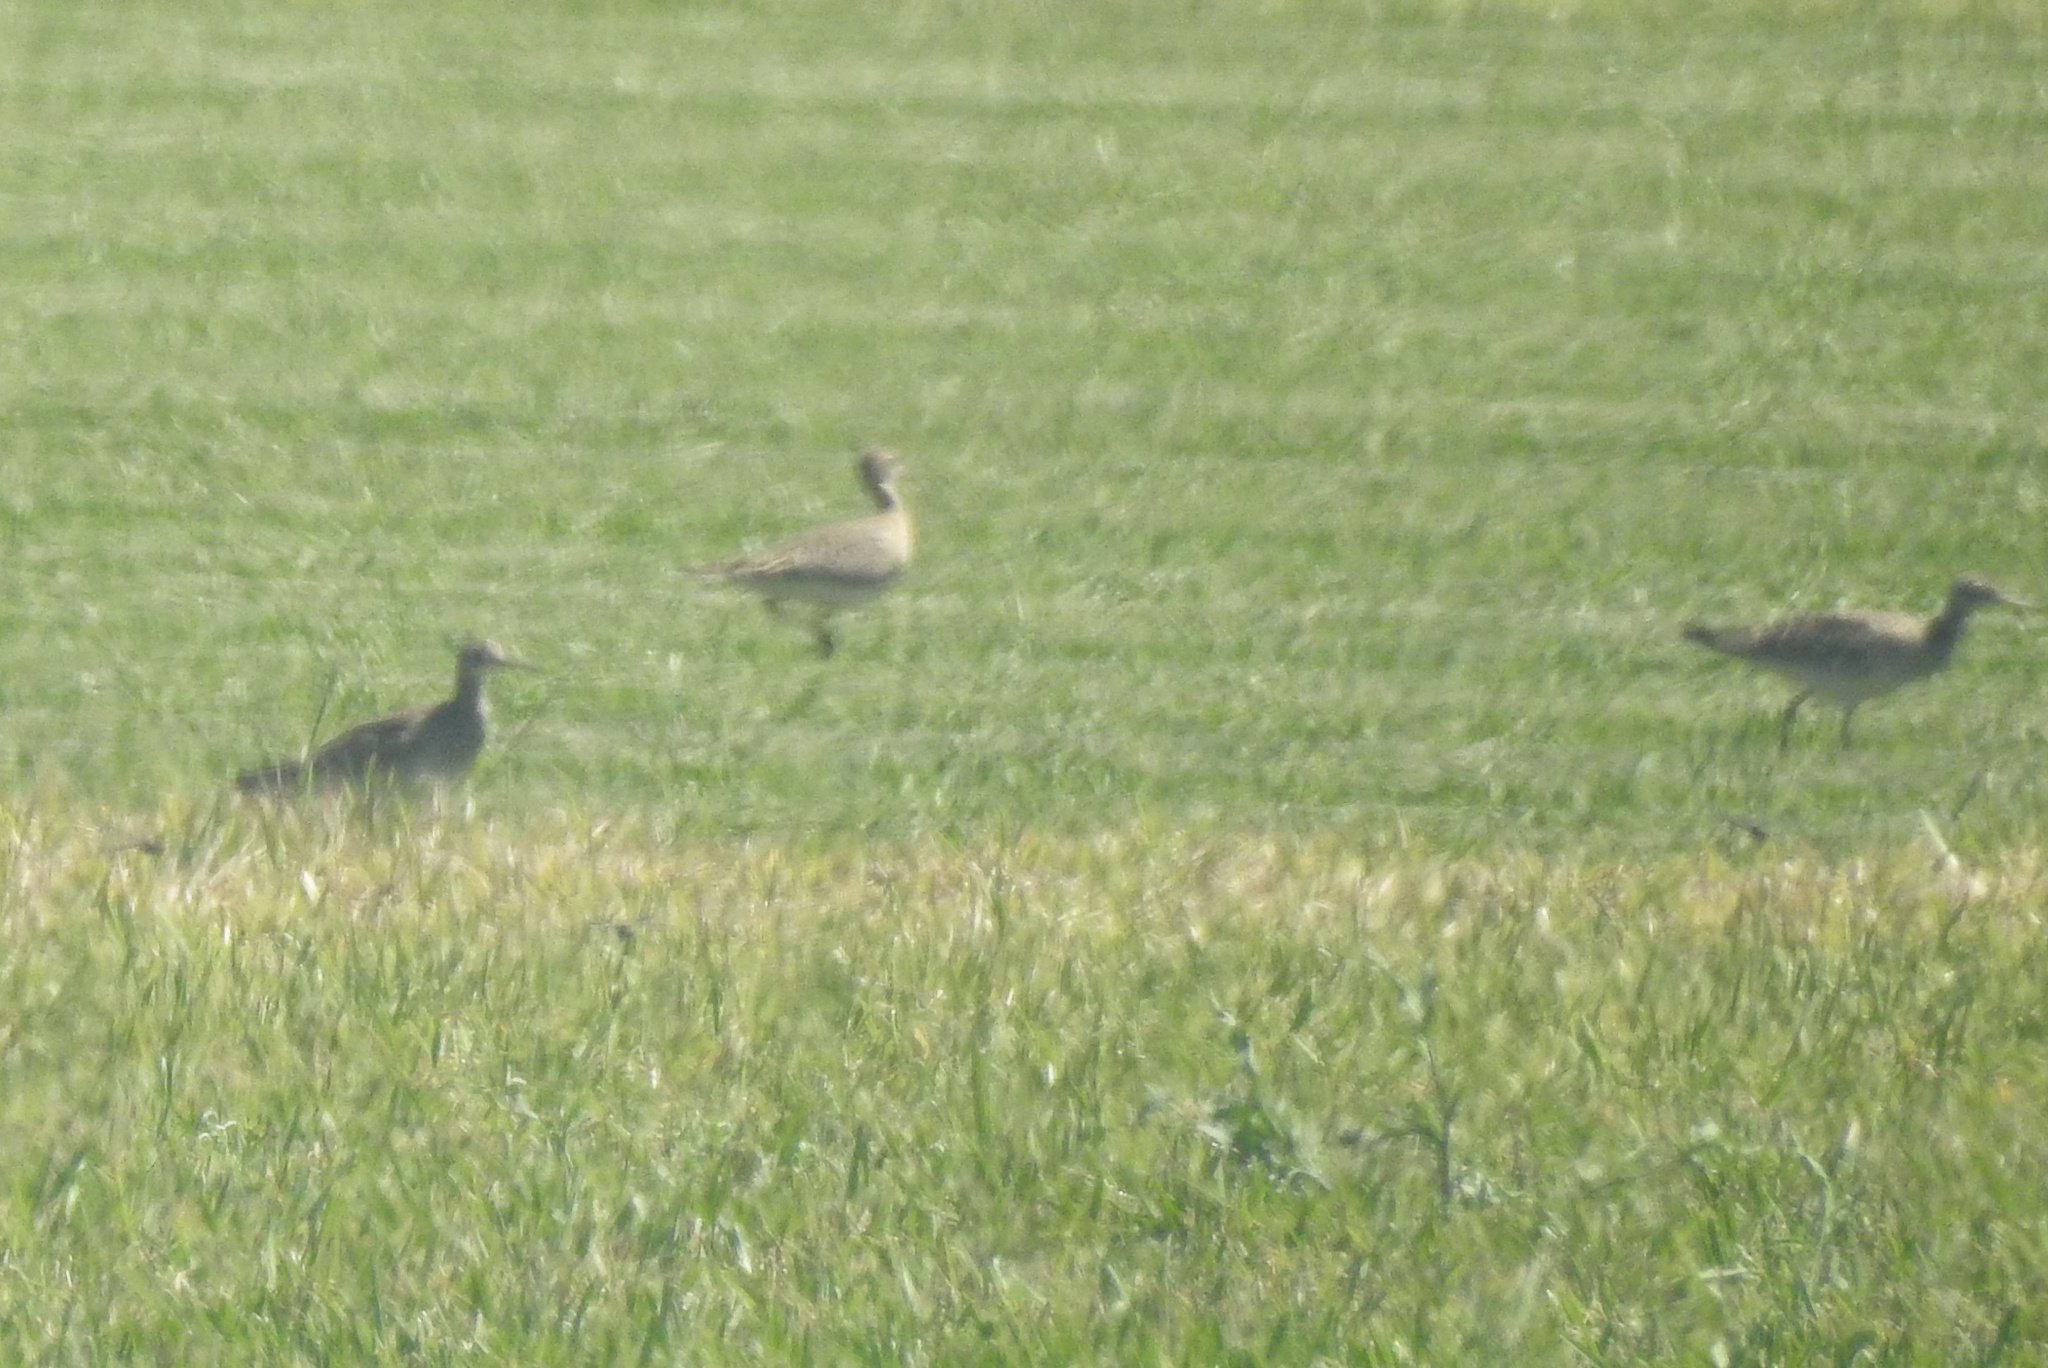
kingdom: Animalia
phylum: Chordata
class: Aves
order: Charadriiformes
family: Scolopacidae
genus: Bartramia
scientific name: Bartramia longicauda
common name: Upland sandpiper
